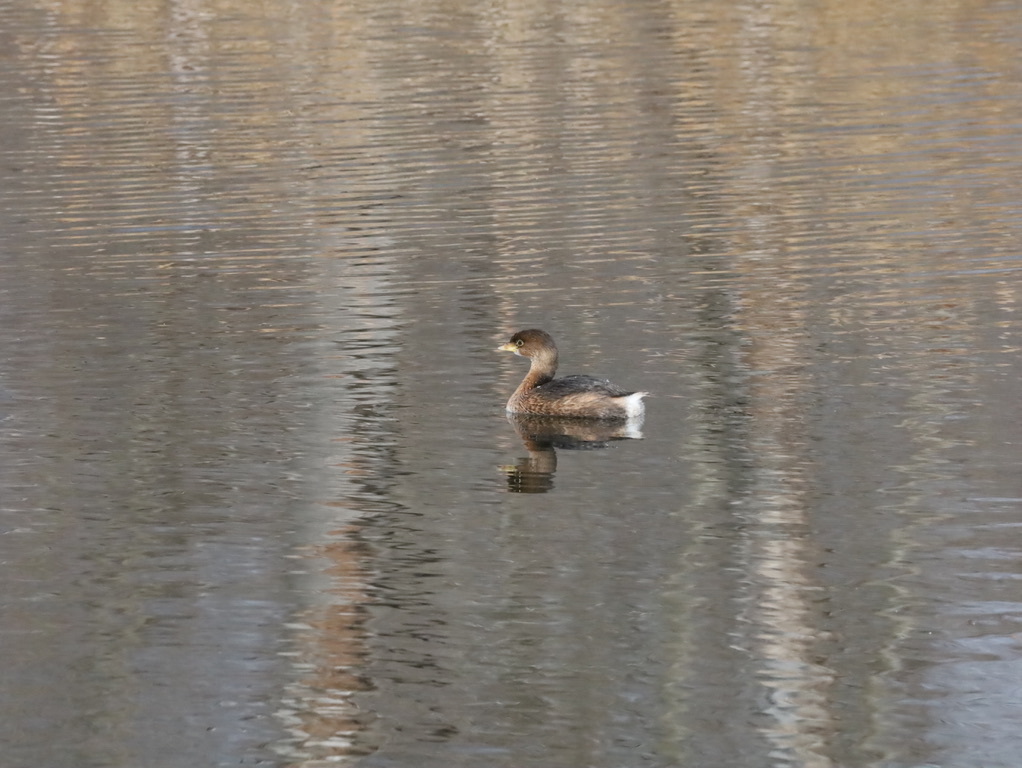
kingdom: Animalia
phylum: Chordata
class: Aves
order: Podicipediformes
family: Podicipedidae
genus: Podilymbus
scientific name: Podilymbus podiceps
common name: Pied-billed grebe
